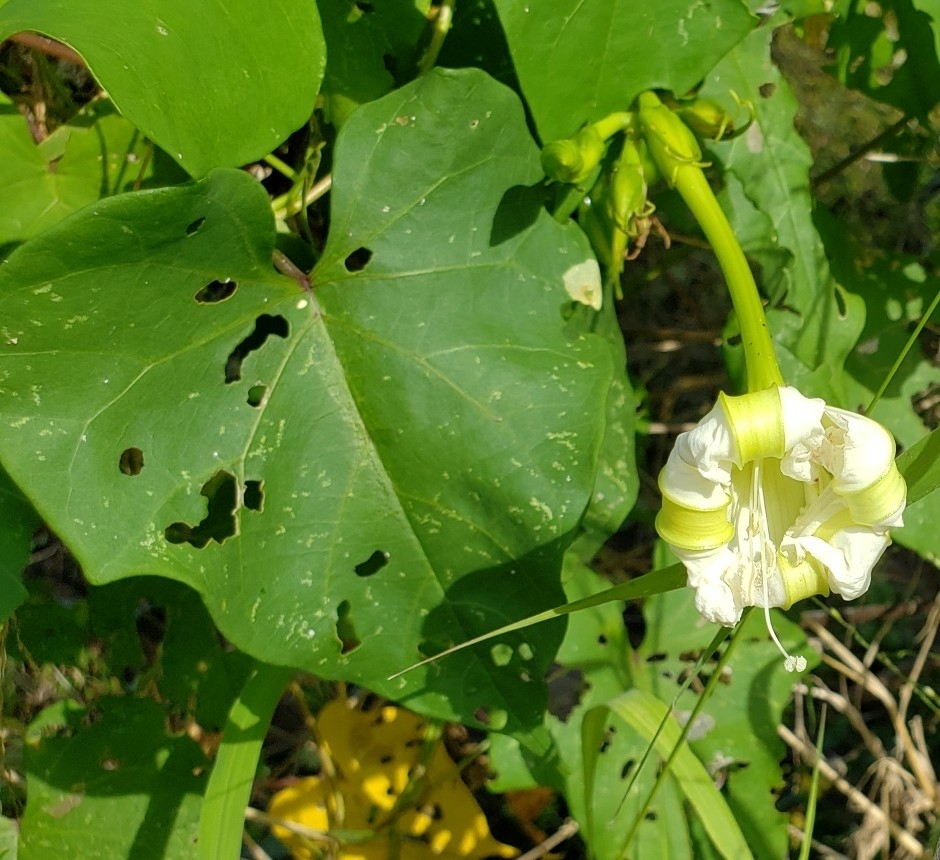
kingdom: Plantae
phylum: Tracheophyta
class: Magnoliopsida
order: Solanales
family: Convolvulaceae
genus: Ipomoea
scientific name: Ipomoea alba
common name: Moonflower
